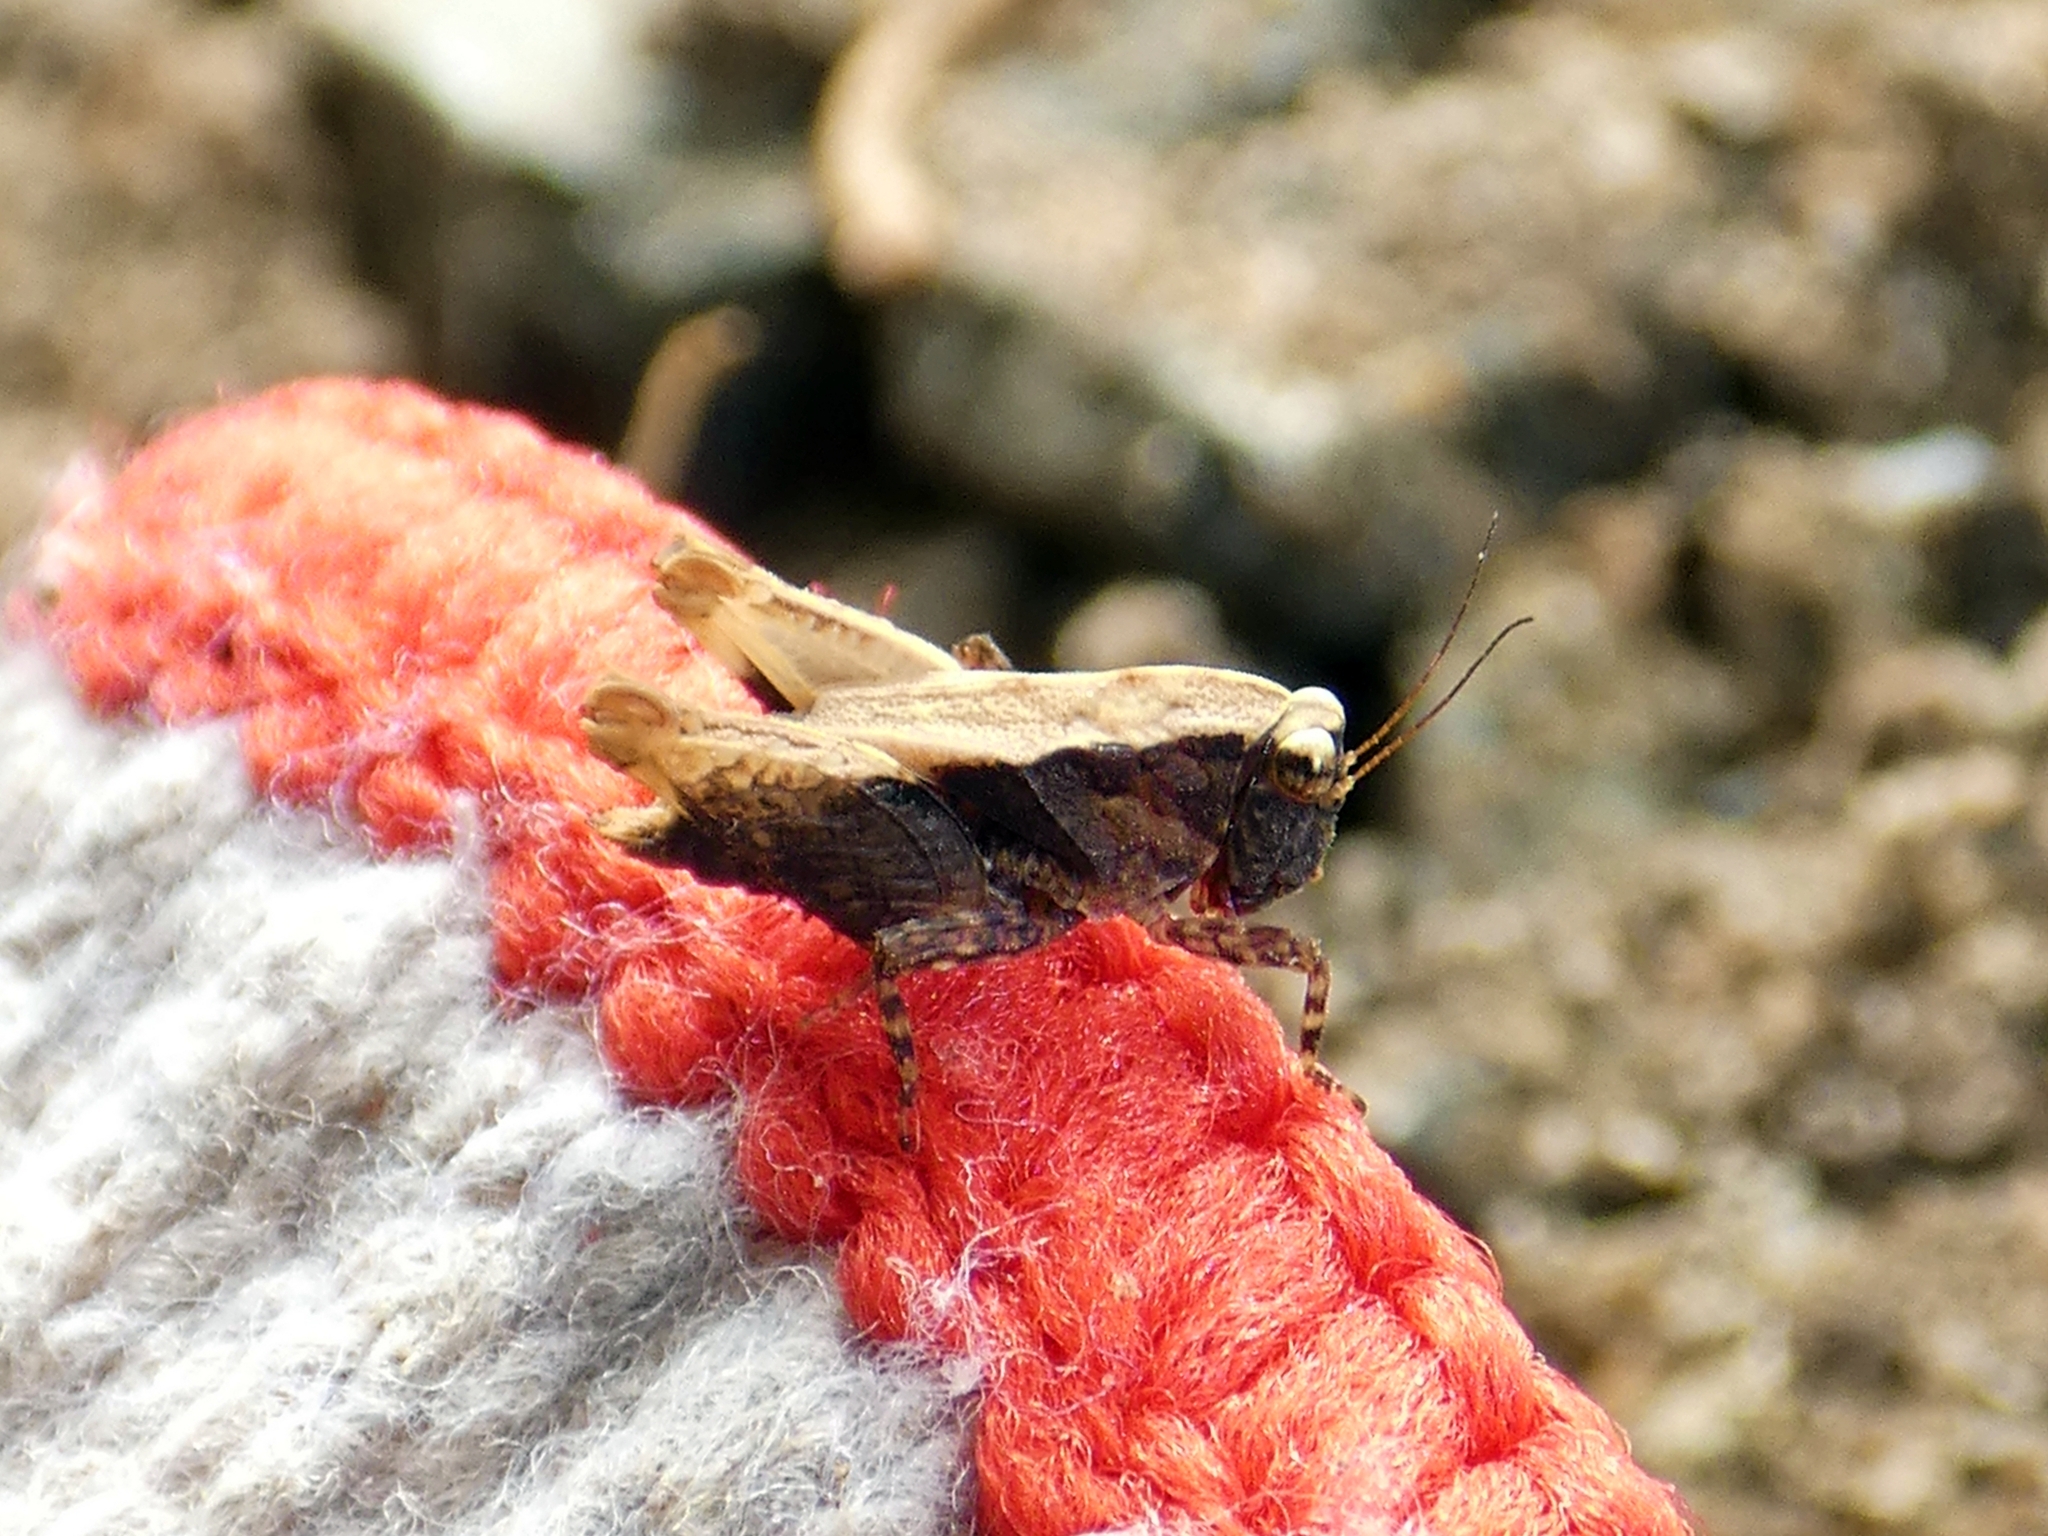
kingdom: Animalia
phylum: Arthropoda
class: Insecta
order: Orthoptera
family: Tetrigidae
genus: Anaselina
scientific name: Anaselina minor
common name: Tiny helmed groundhopper
